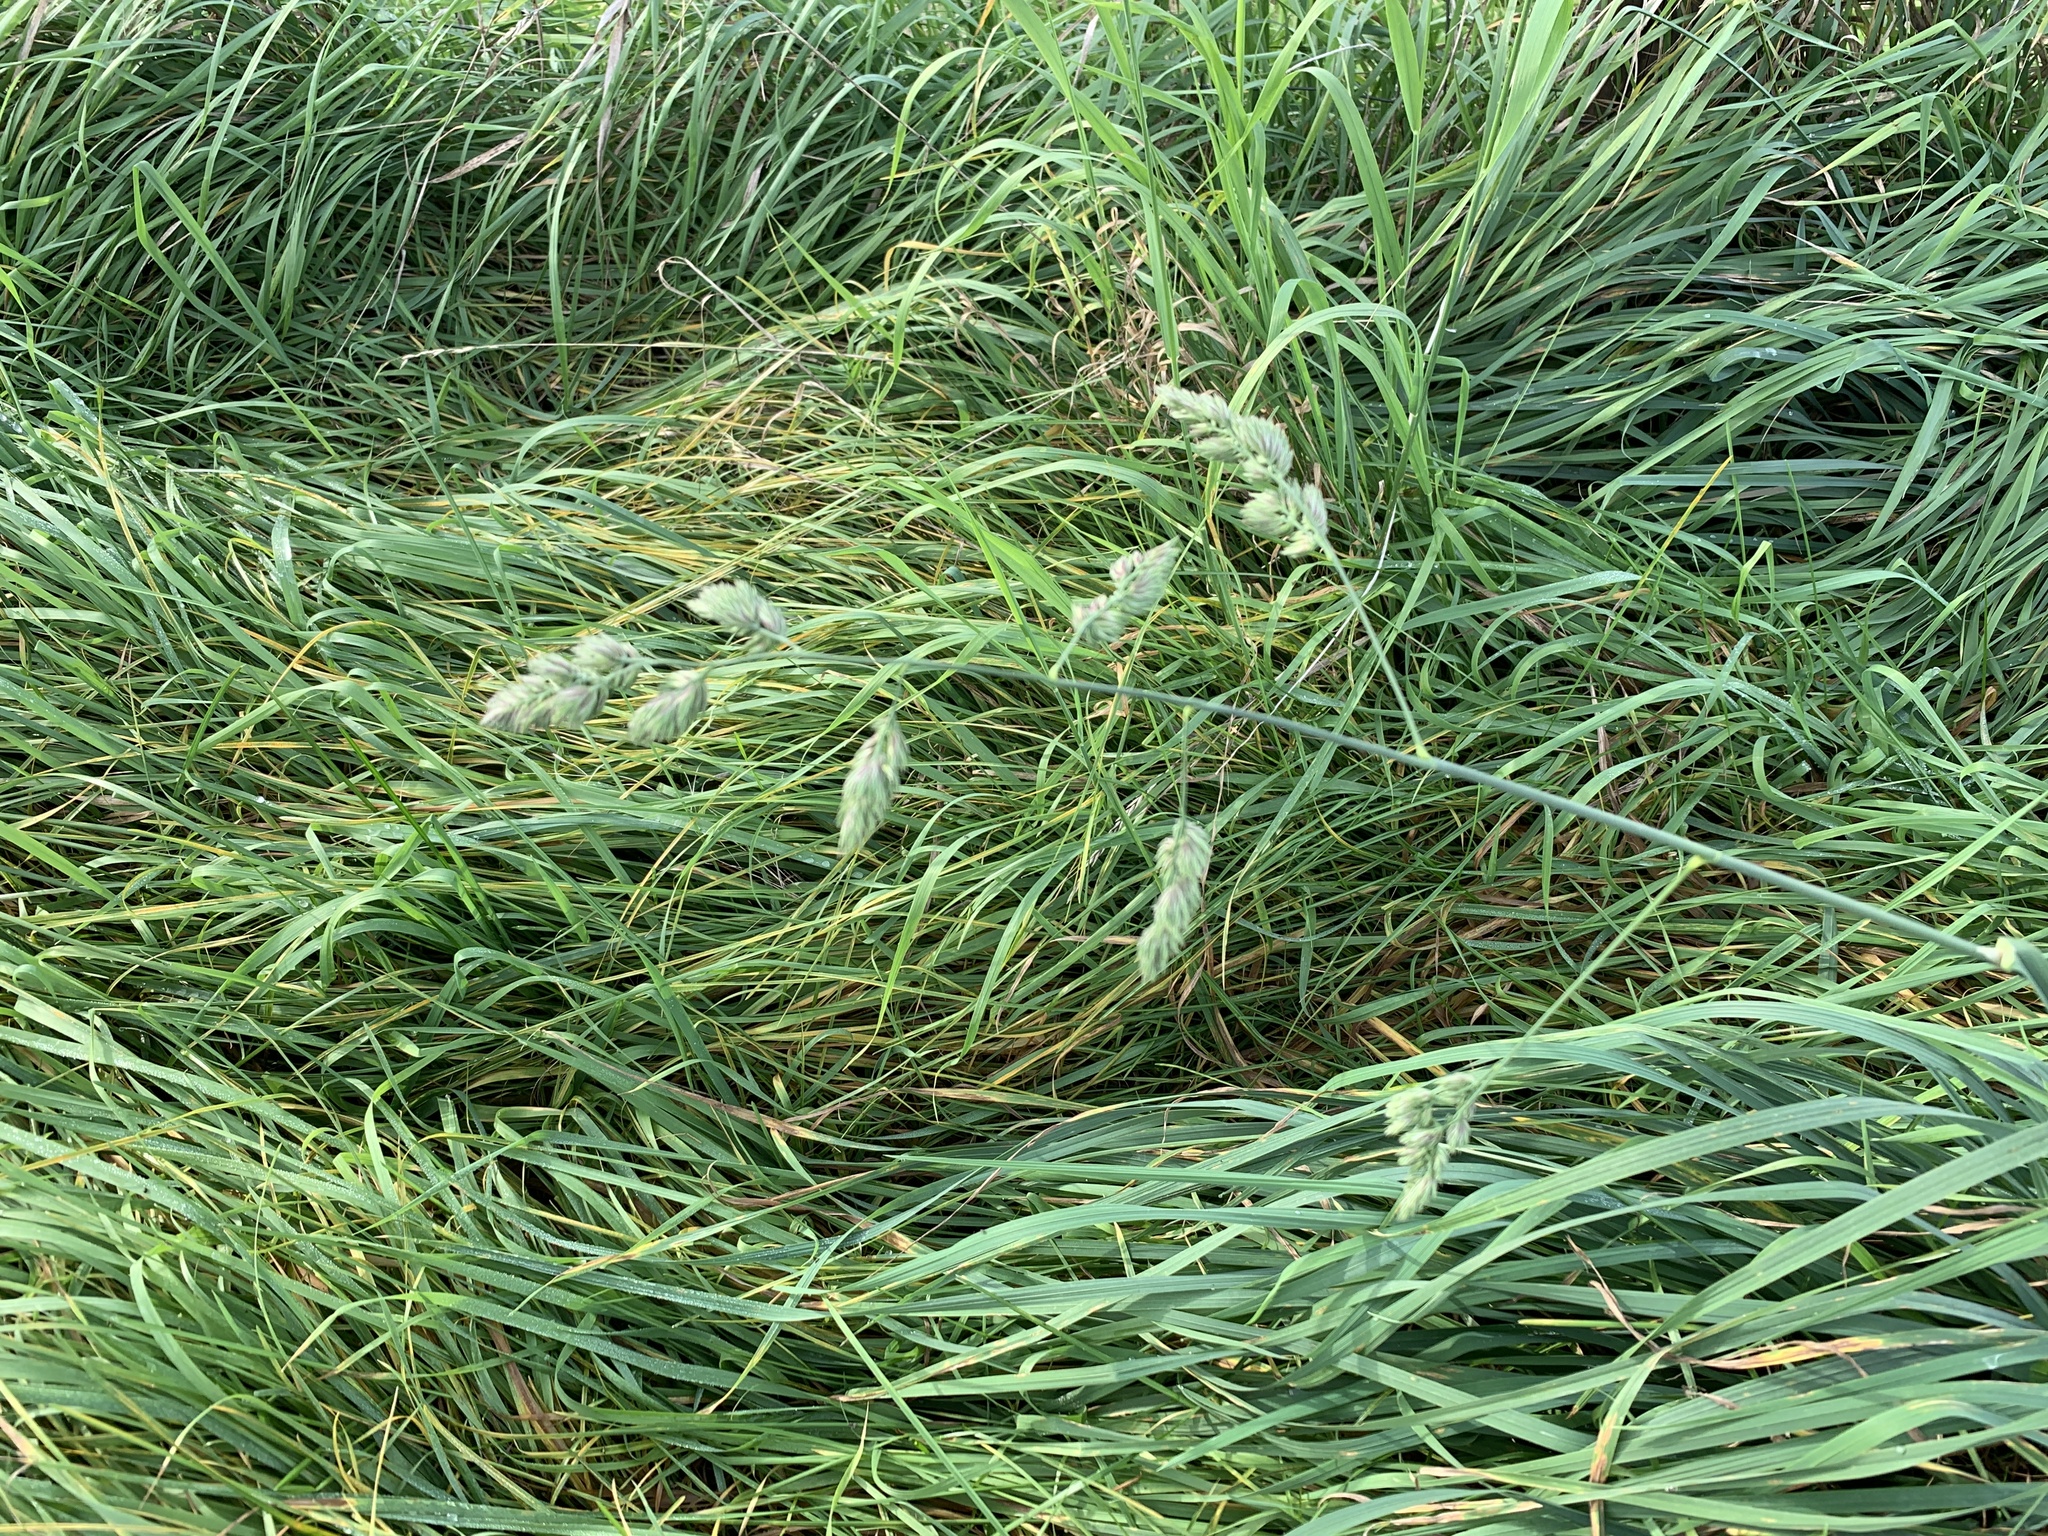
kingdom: Plantae
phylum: Tracheophyta
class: Liliopsida
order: Poales
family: Poaceae
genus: Dactylis
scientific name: Dactylis glomerata
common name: Orchardgrass
